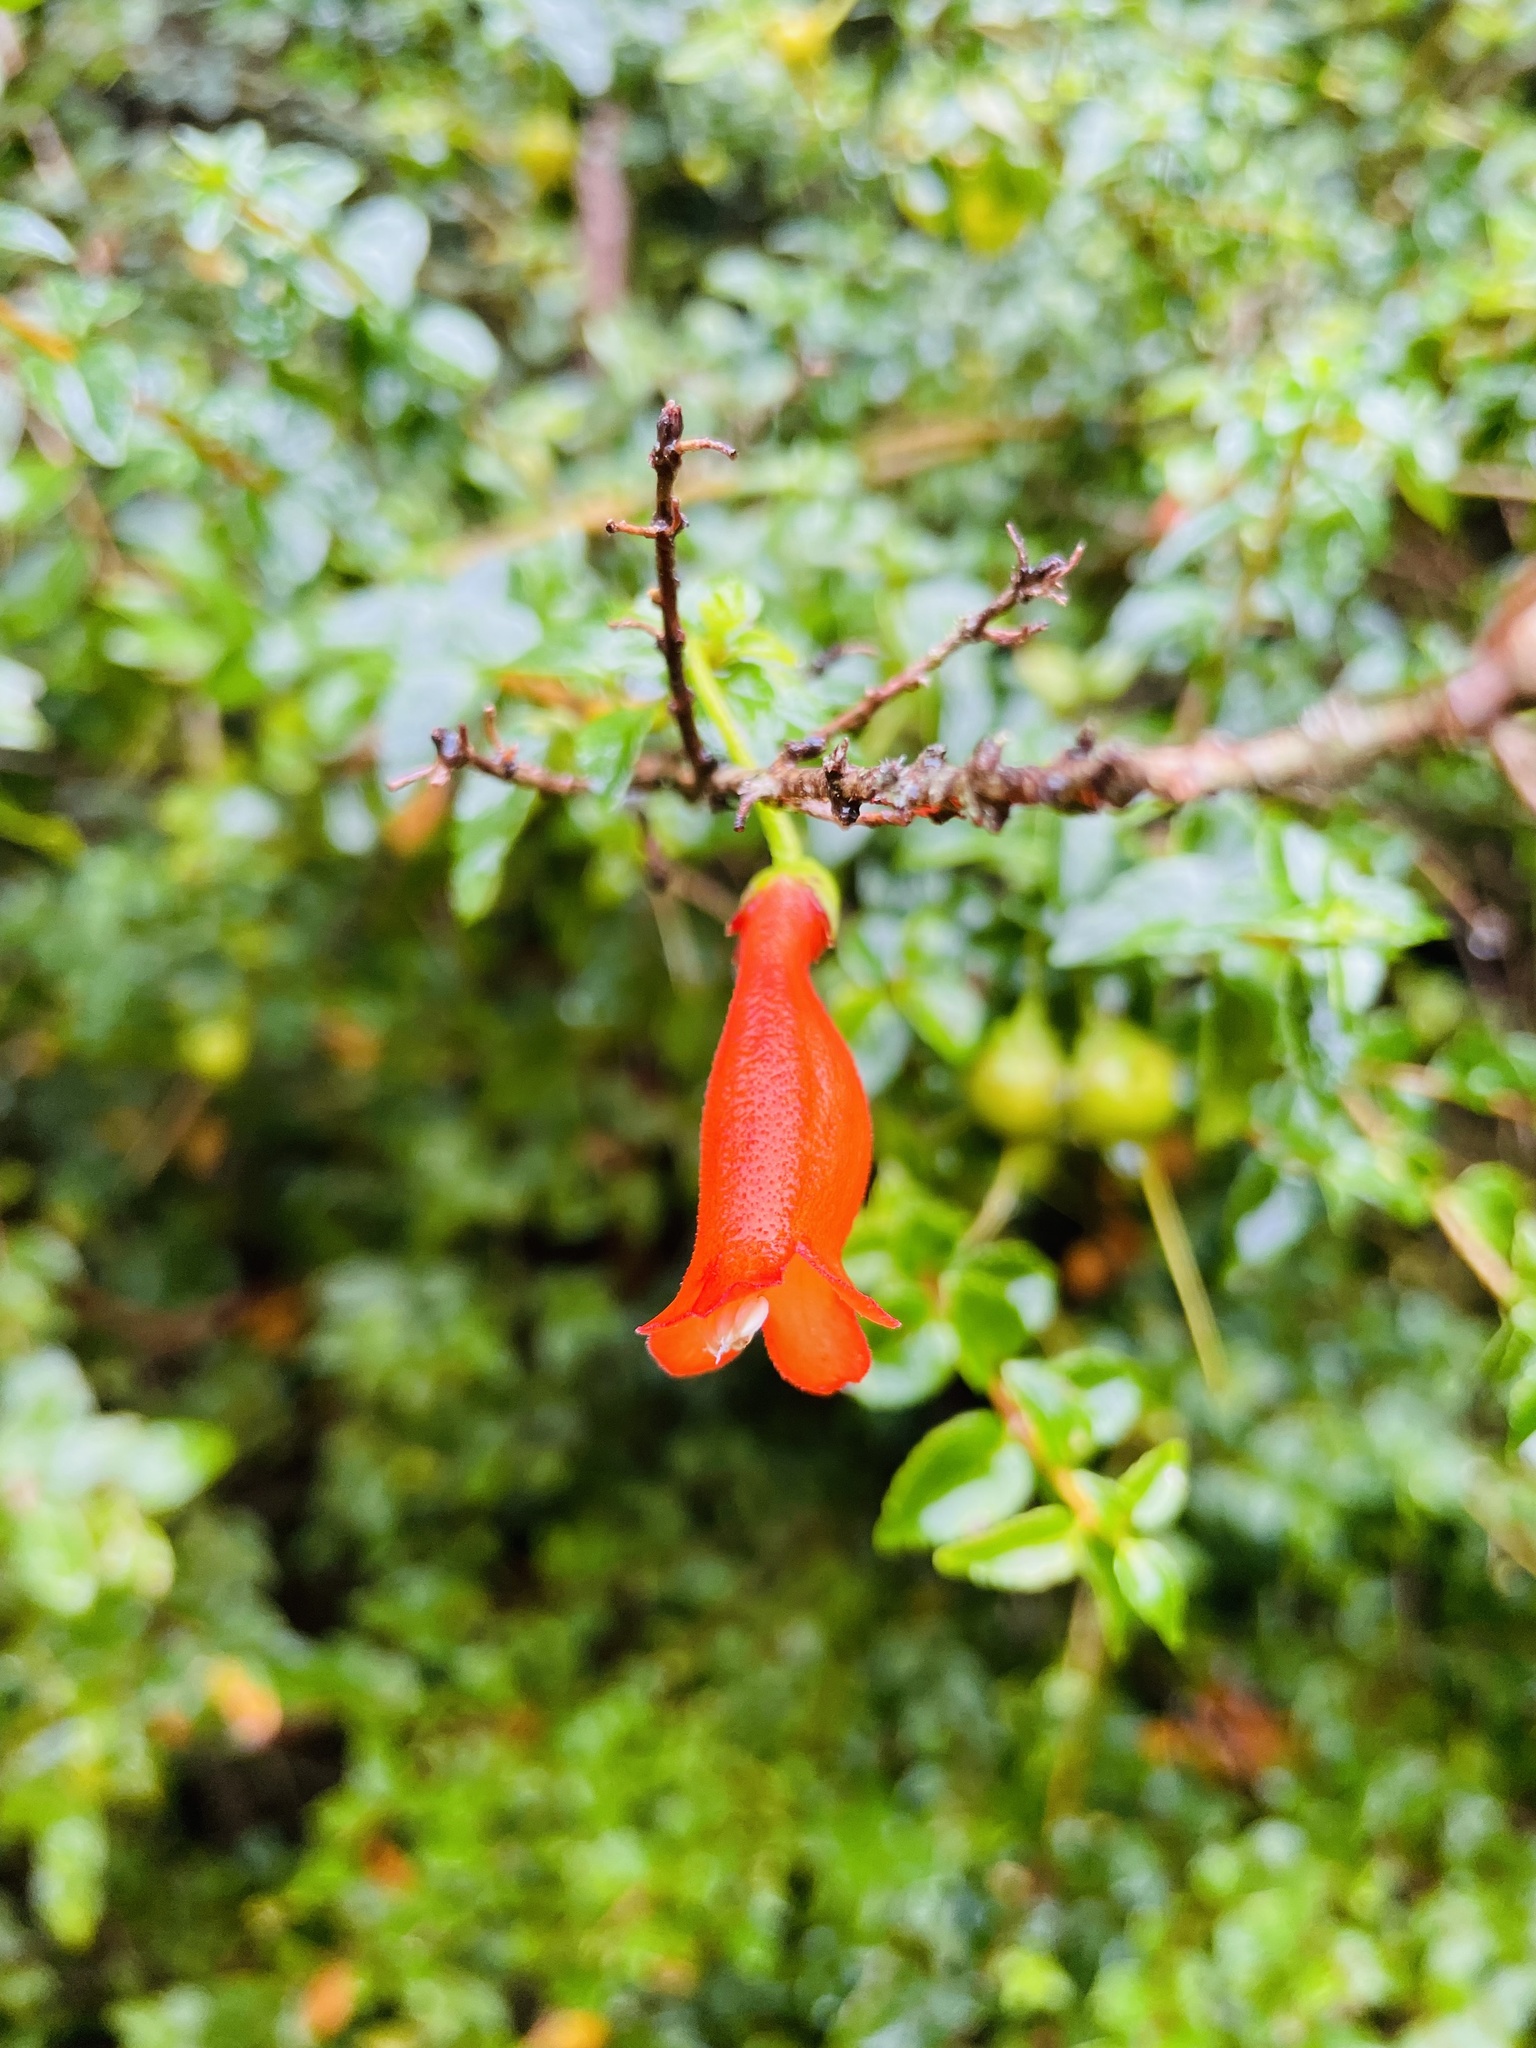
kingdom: Plantae
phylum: Tracheophyta
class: Magnoliopsida
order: Lamiales
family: Gesneriaceae
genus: Mitraria
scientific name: Mitraria coccinea
